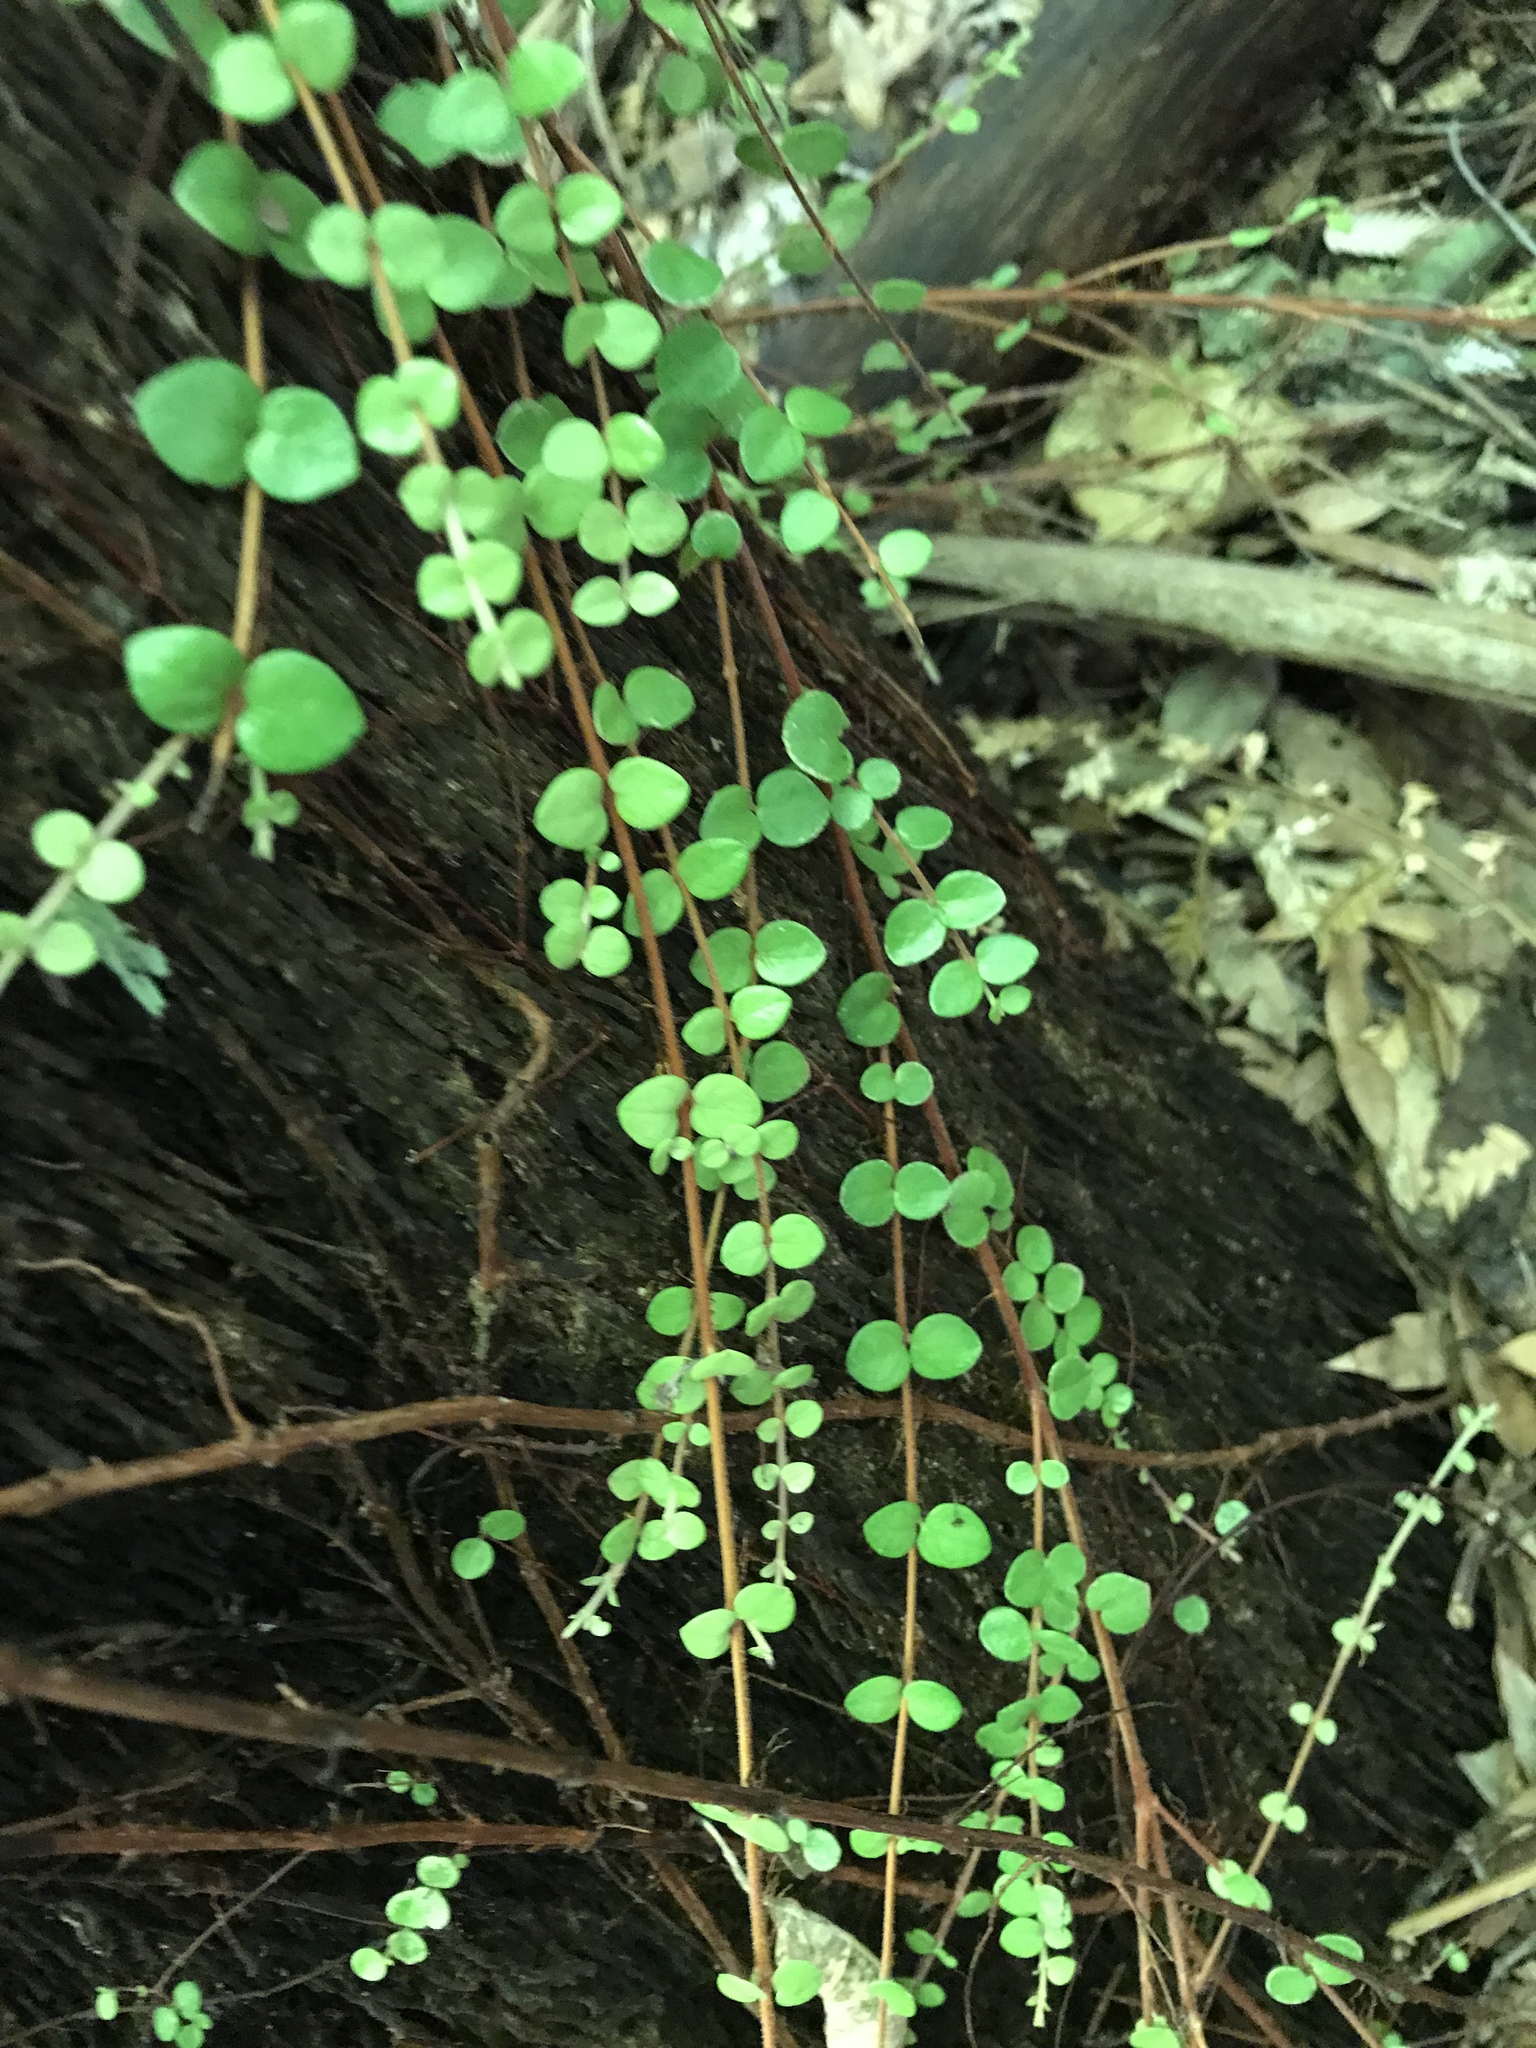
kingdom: Plantae
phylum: Tracheophyta
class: Magnoliopsida
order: Myrtales
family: Myrtaceae
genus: Metrosideros
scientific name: Metrosideros perforata
